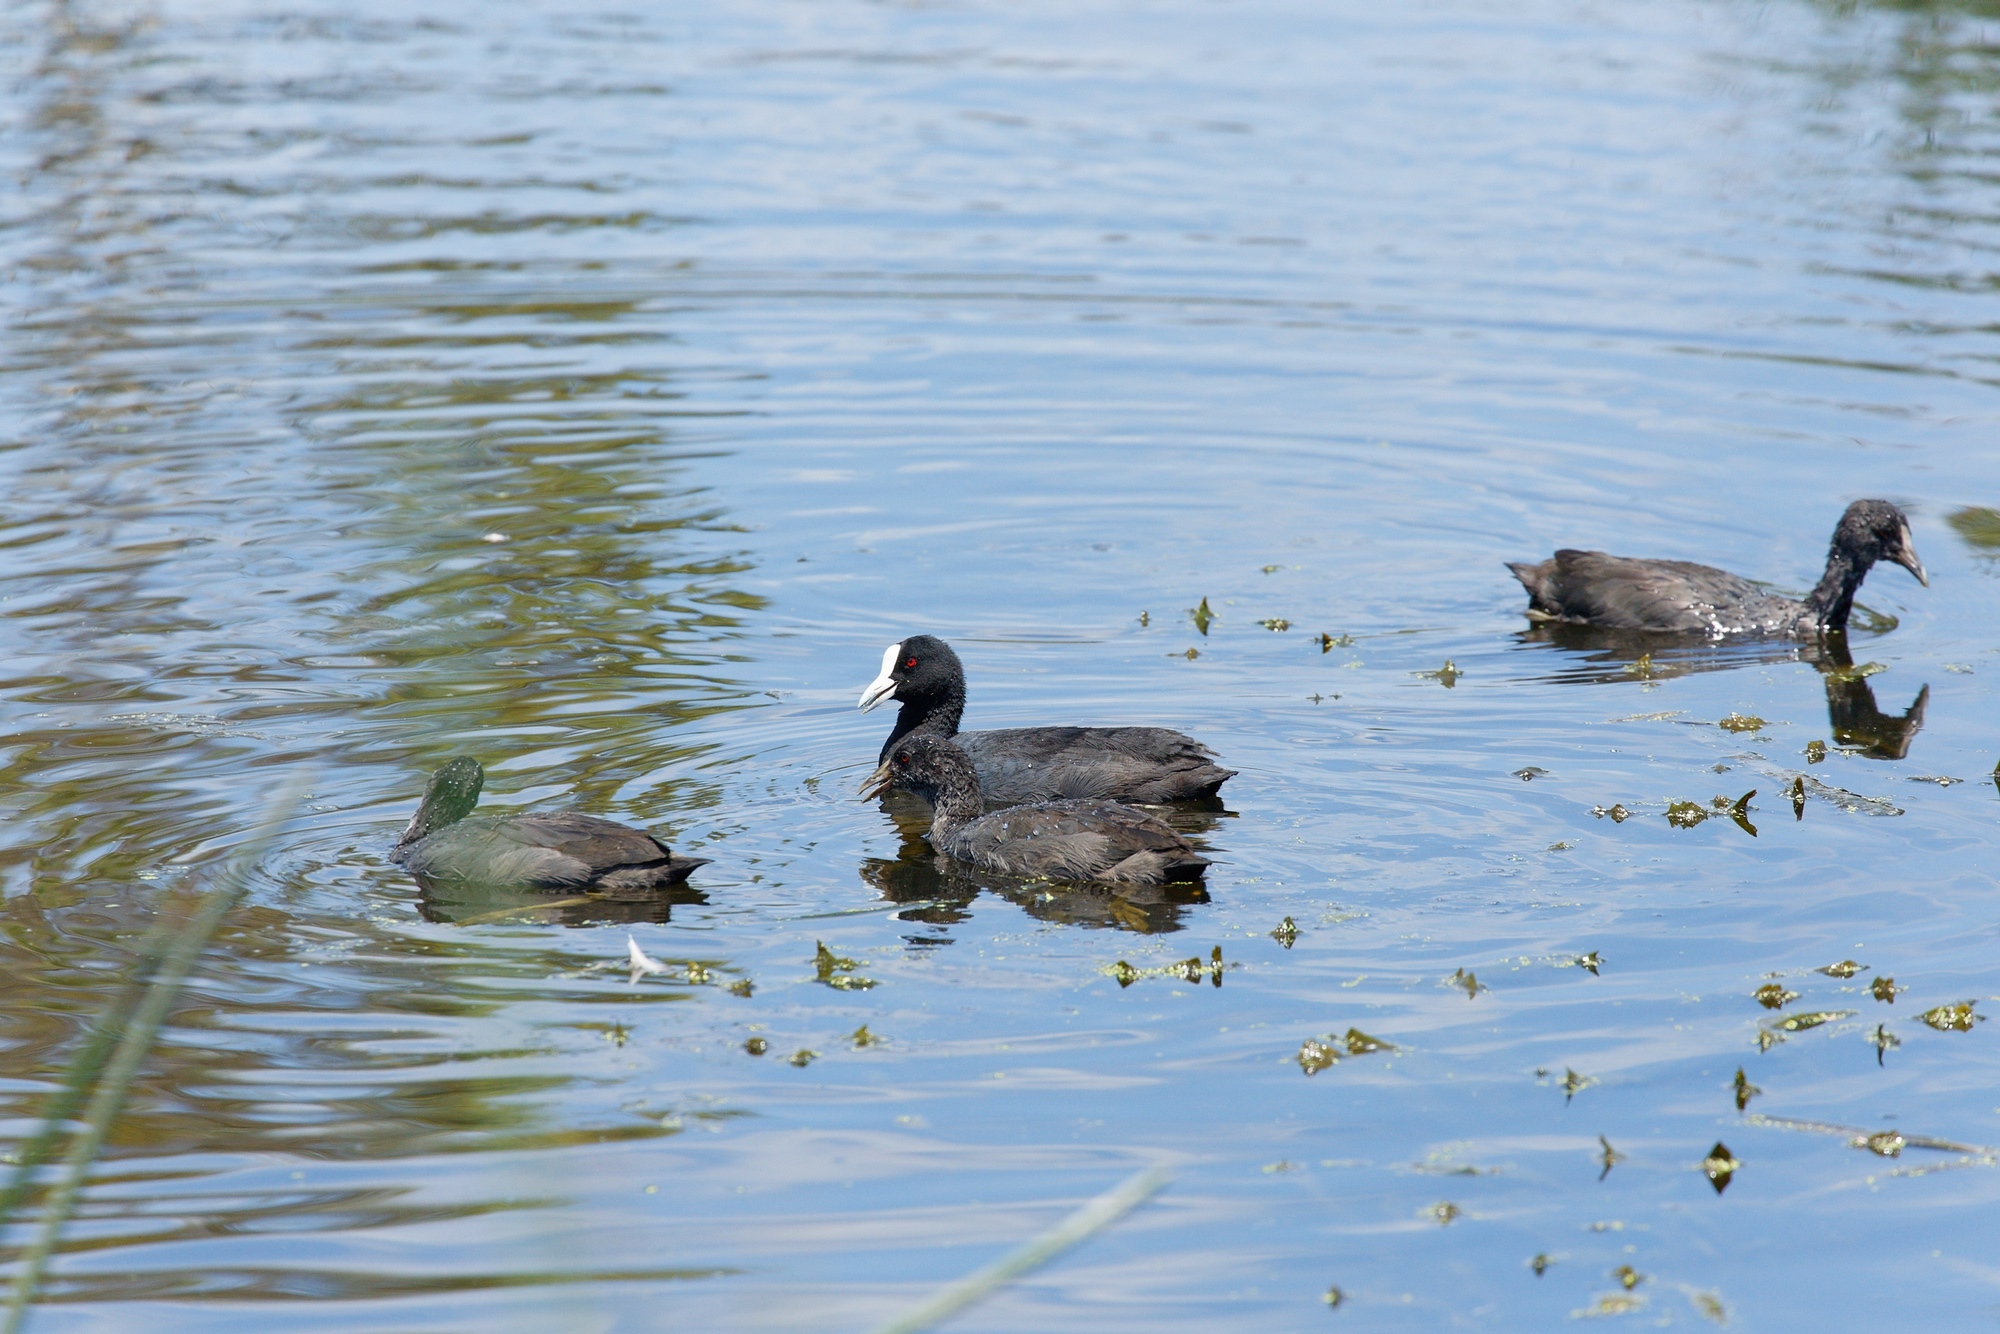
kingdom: Animalia
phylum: Chordata
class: Aves
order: Gruiformes
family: Rallidae
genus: Fulica
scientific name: Fulica atra
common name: Eurasian coot
